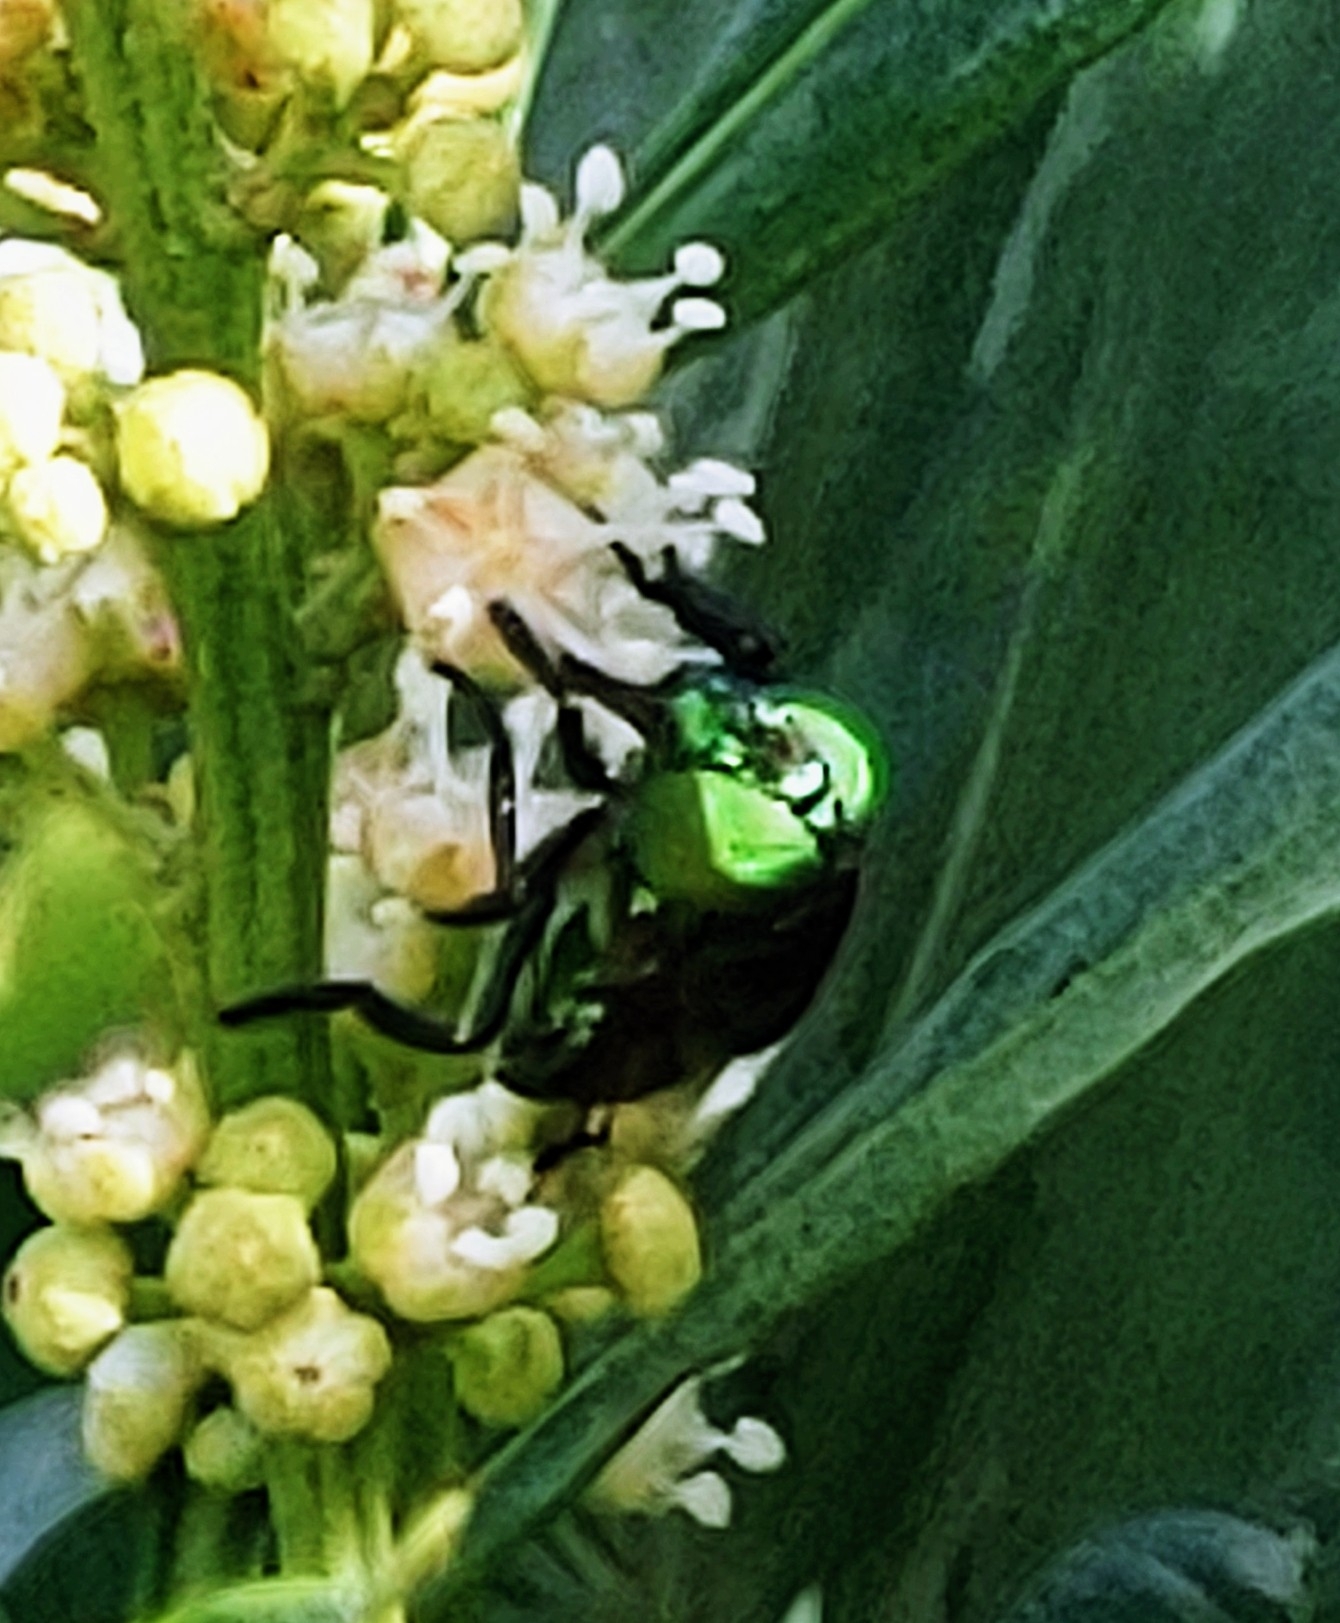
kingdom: Animalia
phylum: Arthropoda
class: Insecta
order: Diptera
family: Syrphidae
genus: Ornidia
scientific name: Ornidia obesa
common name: Syrphid fly
